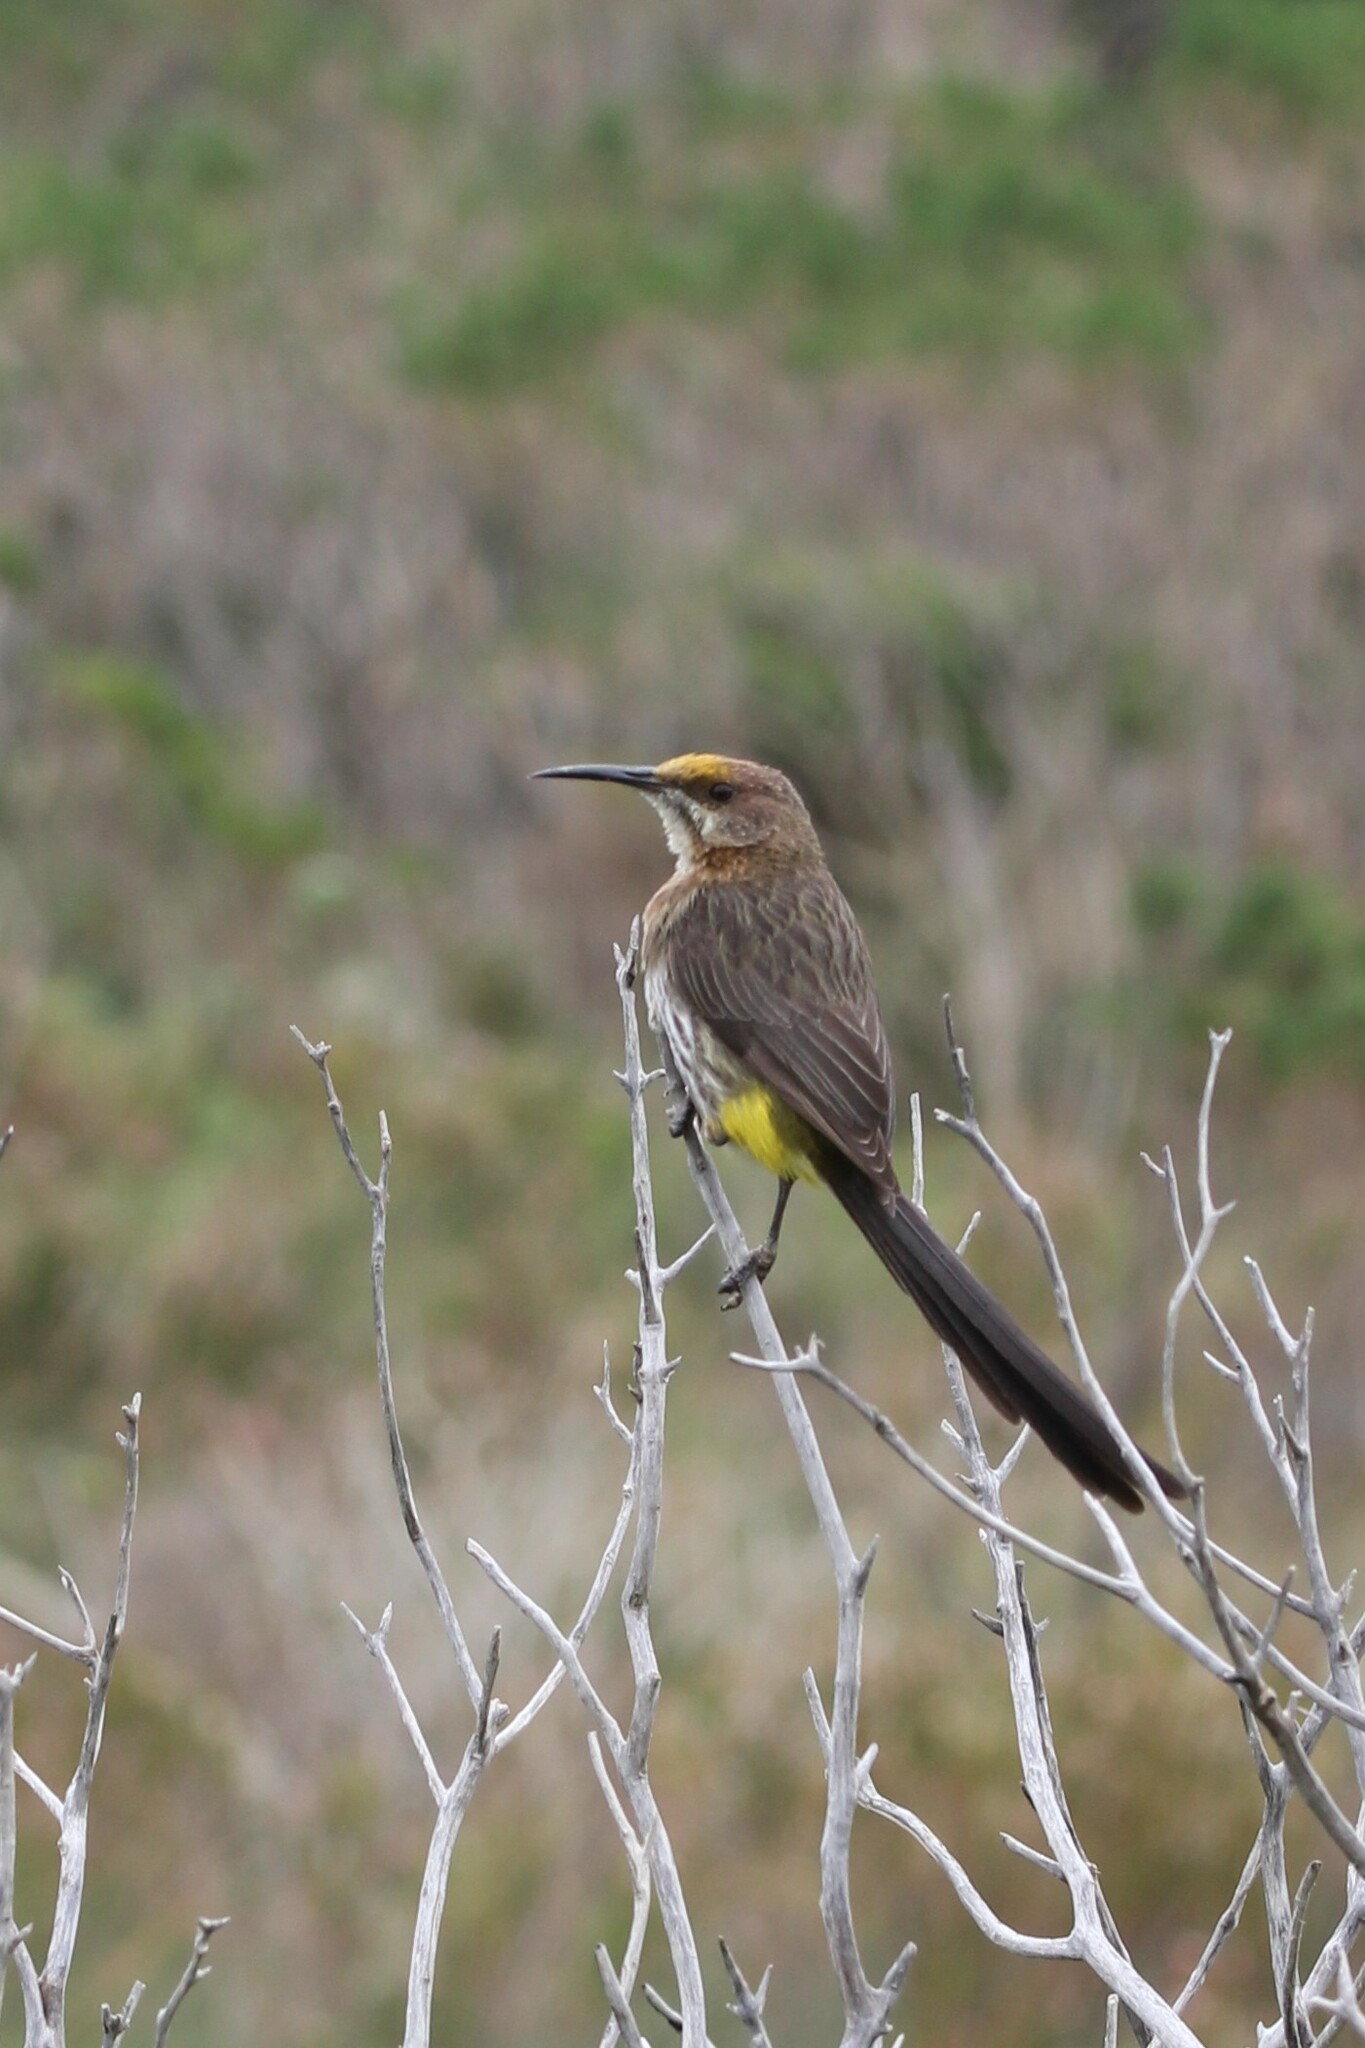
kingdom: Animalia
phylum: Chordata
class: Aves
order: Passeriformes
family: Promeropidae
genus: Promerops
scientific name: Promerops cafer
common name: Cape sugarbird
